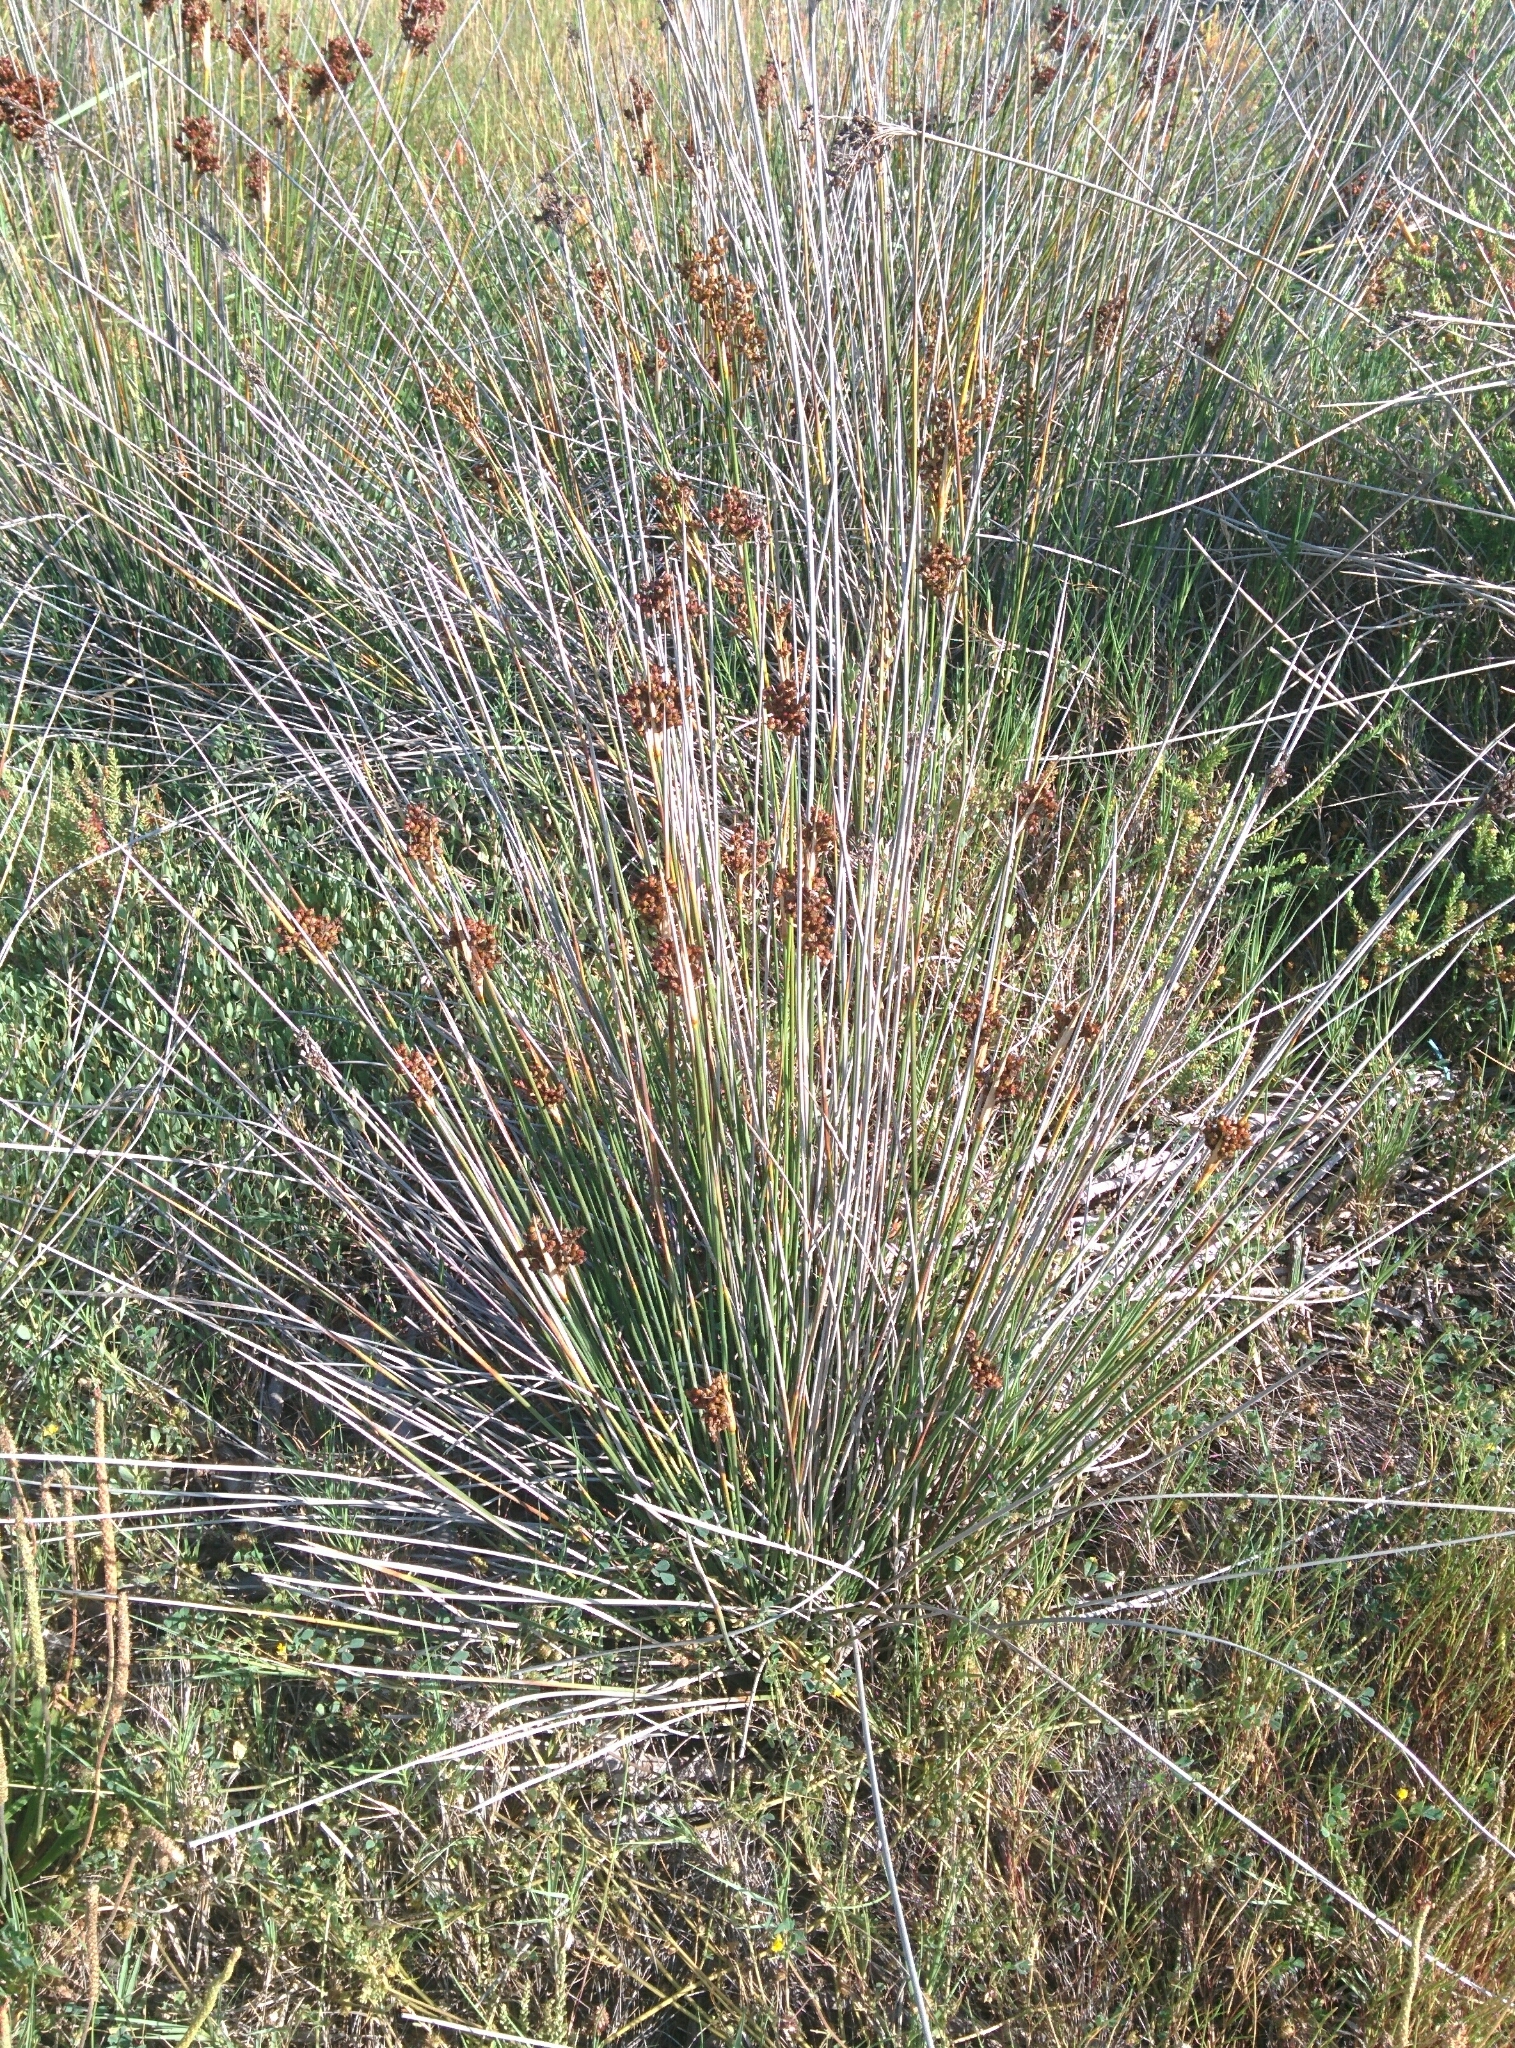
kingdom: Plantae
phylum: Tracheophyta
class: Liliopsida
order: Poales
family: Juncaceae
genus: Juncus
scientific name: Juncus acutus
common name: Sharp rush
